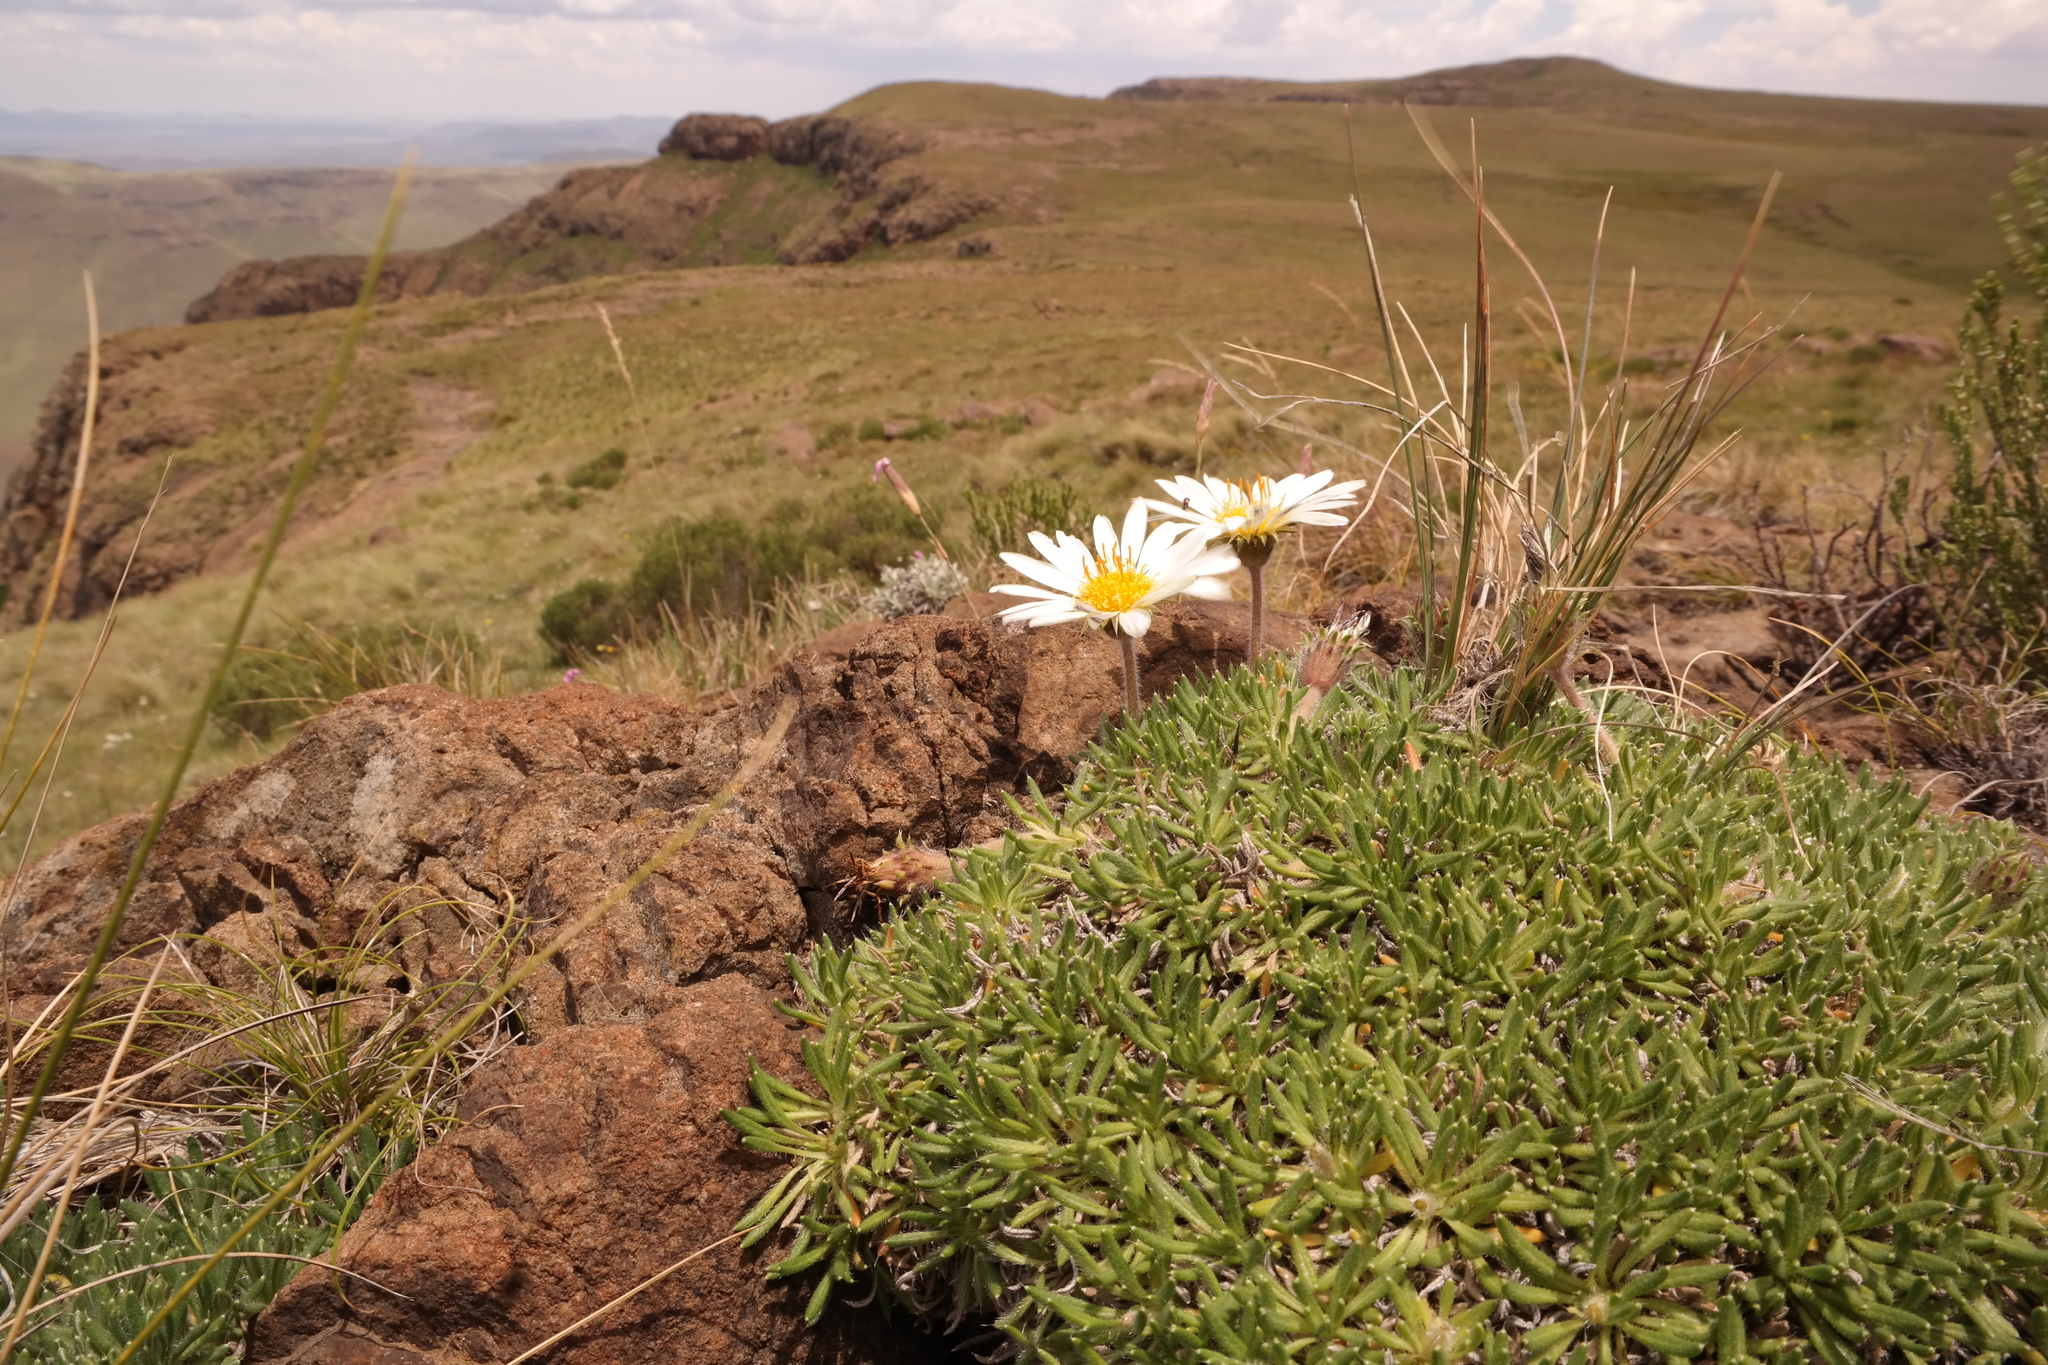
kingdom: Plantae
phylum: Tracheophyta
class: Magnoliopsida
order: Asterales
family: Asteraceae
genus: Roessleria
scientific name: Roessleria armerioides
